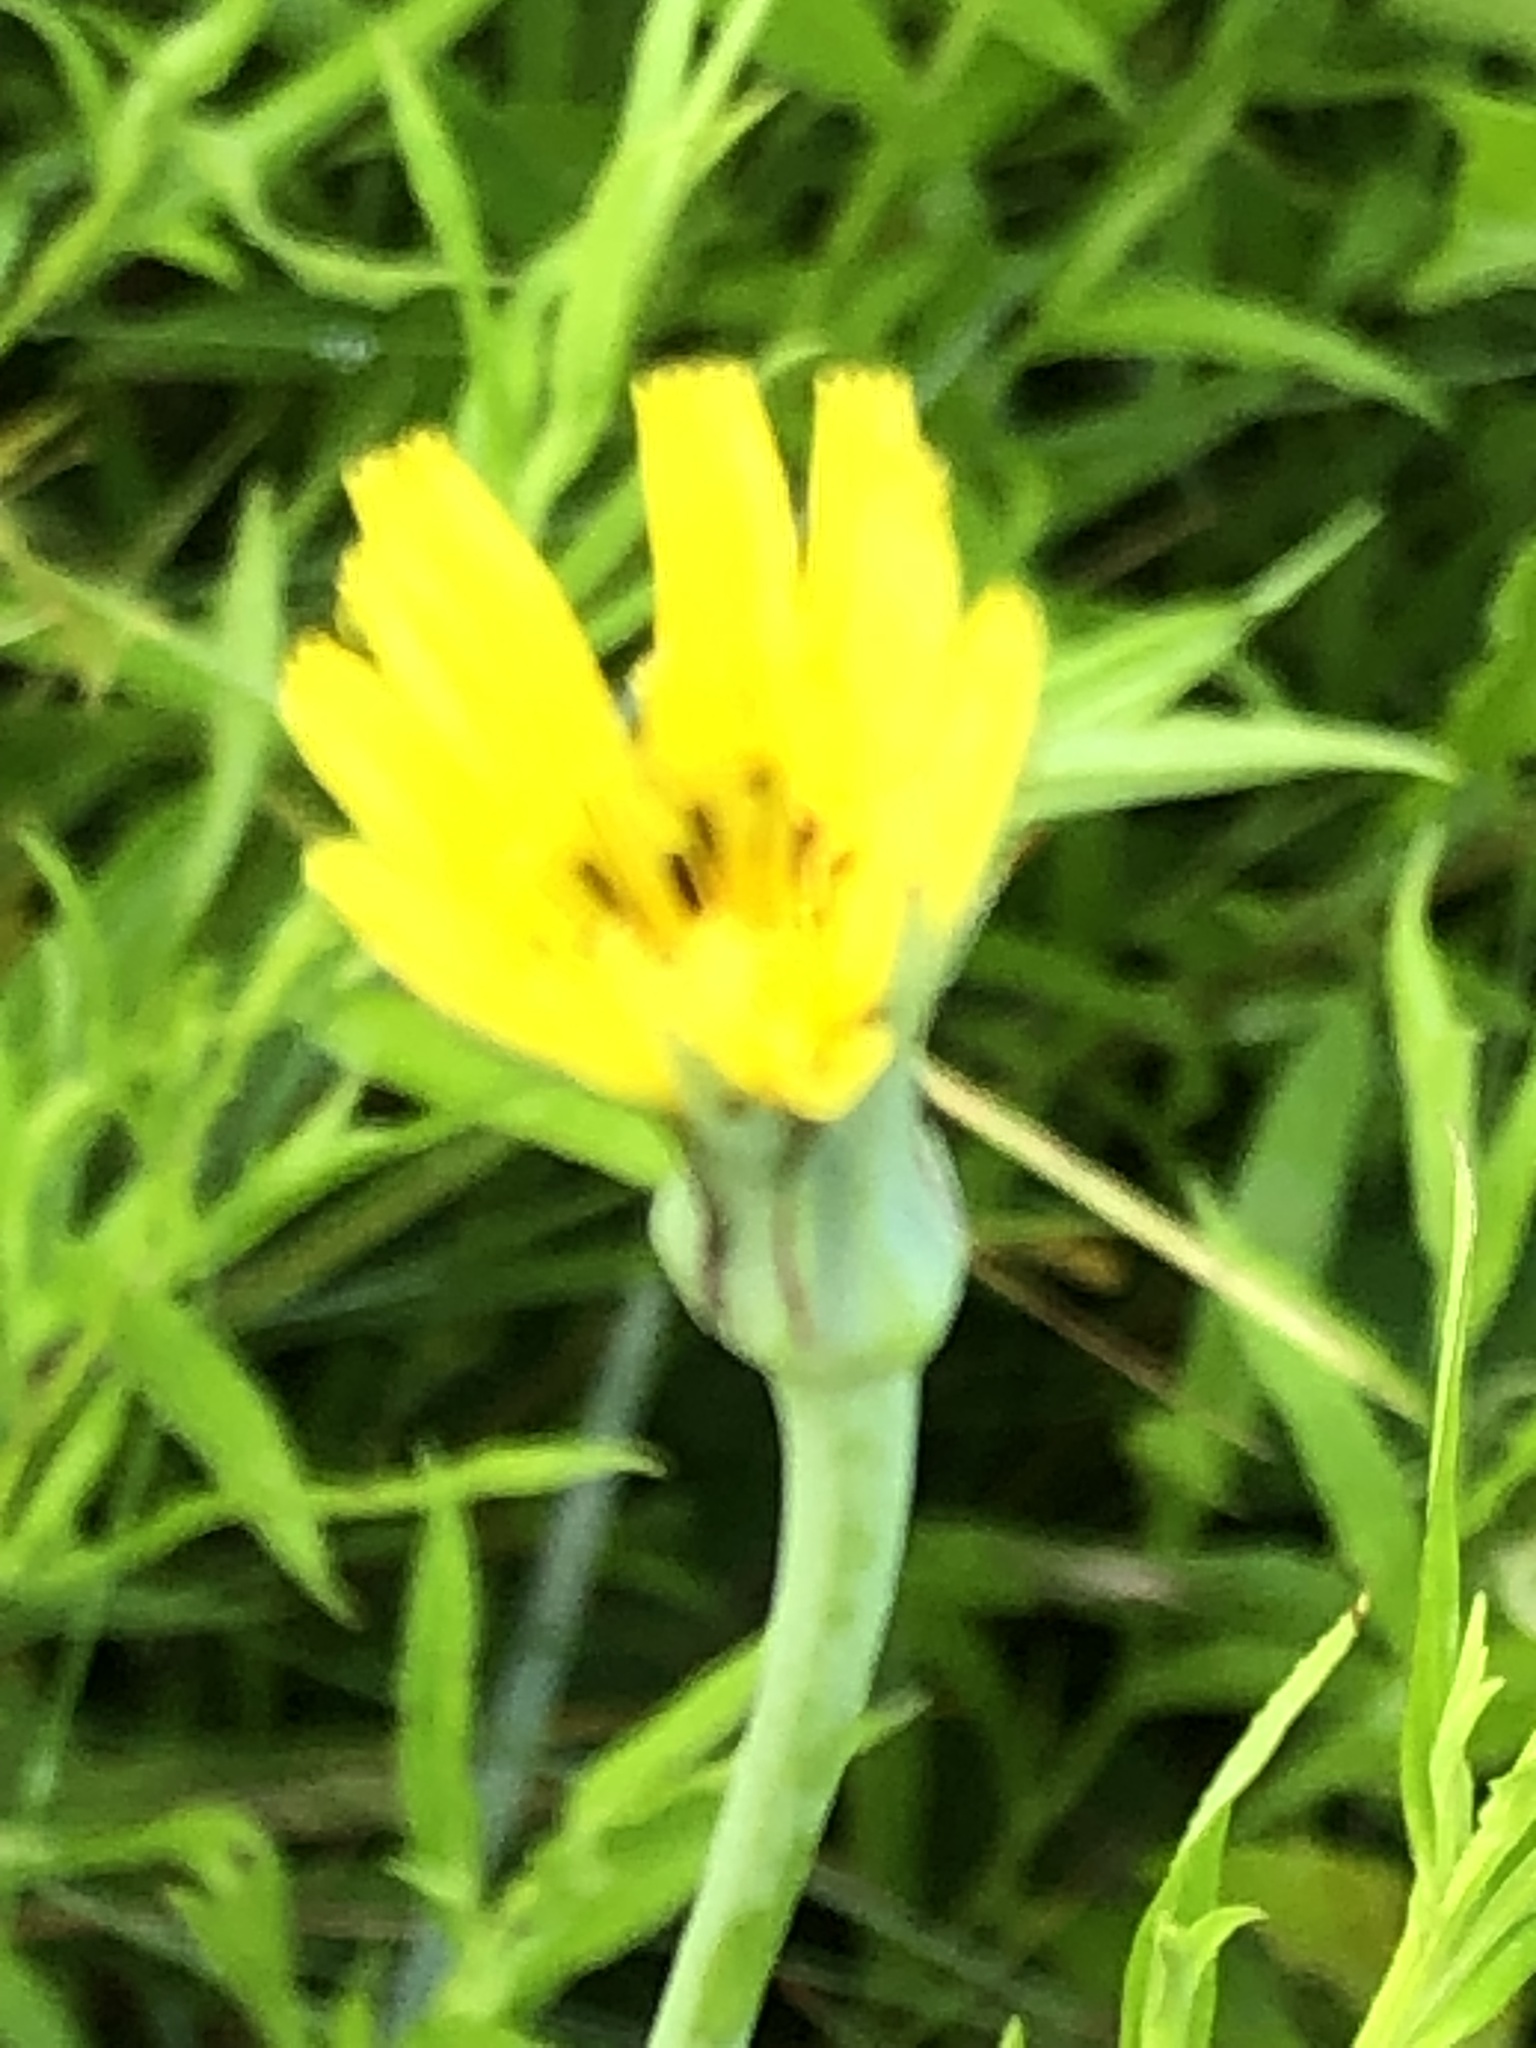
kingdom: Plantae
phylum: Tracheophyta
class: Magnoliopsida
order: Asterales
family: Asteraceae
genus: Tragopogon
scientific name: Tragopogon pratensis
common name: Goat's-beard
